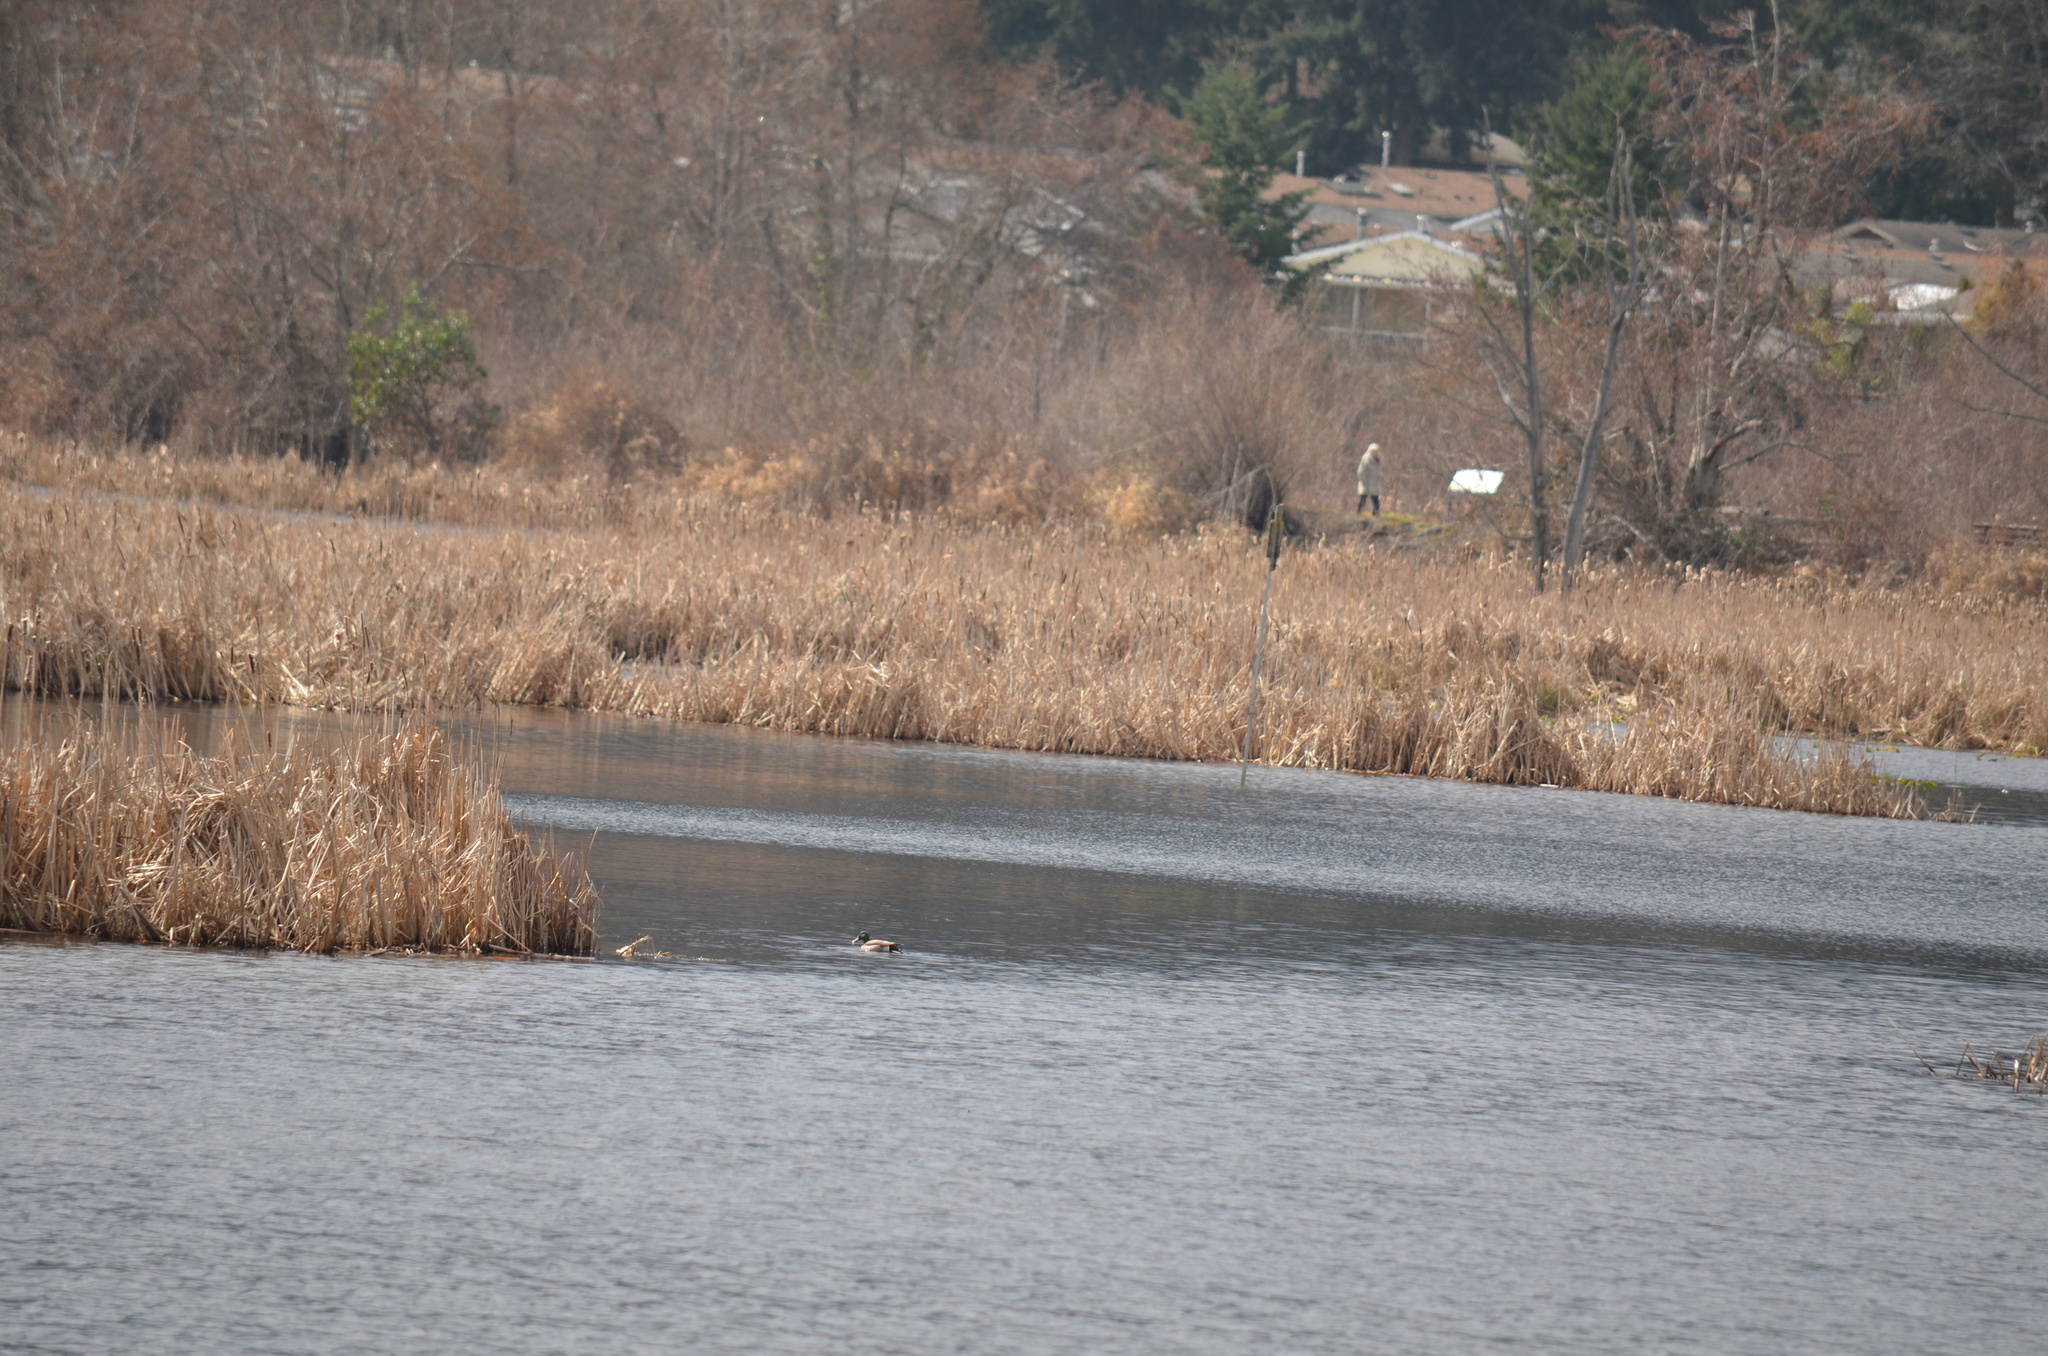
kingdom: Animalia
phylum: Chordata
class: Aves
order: Anseriformes
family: Anatidae
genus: Anas
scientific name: Anas platyrhynchos
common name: Mallard
